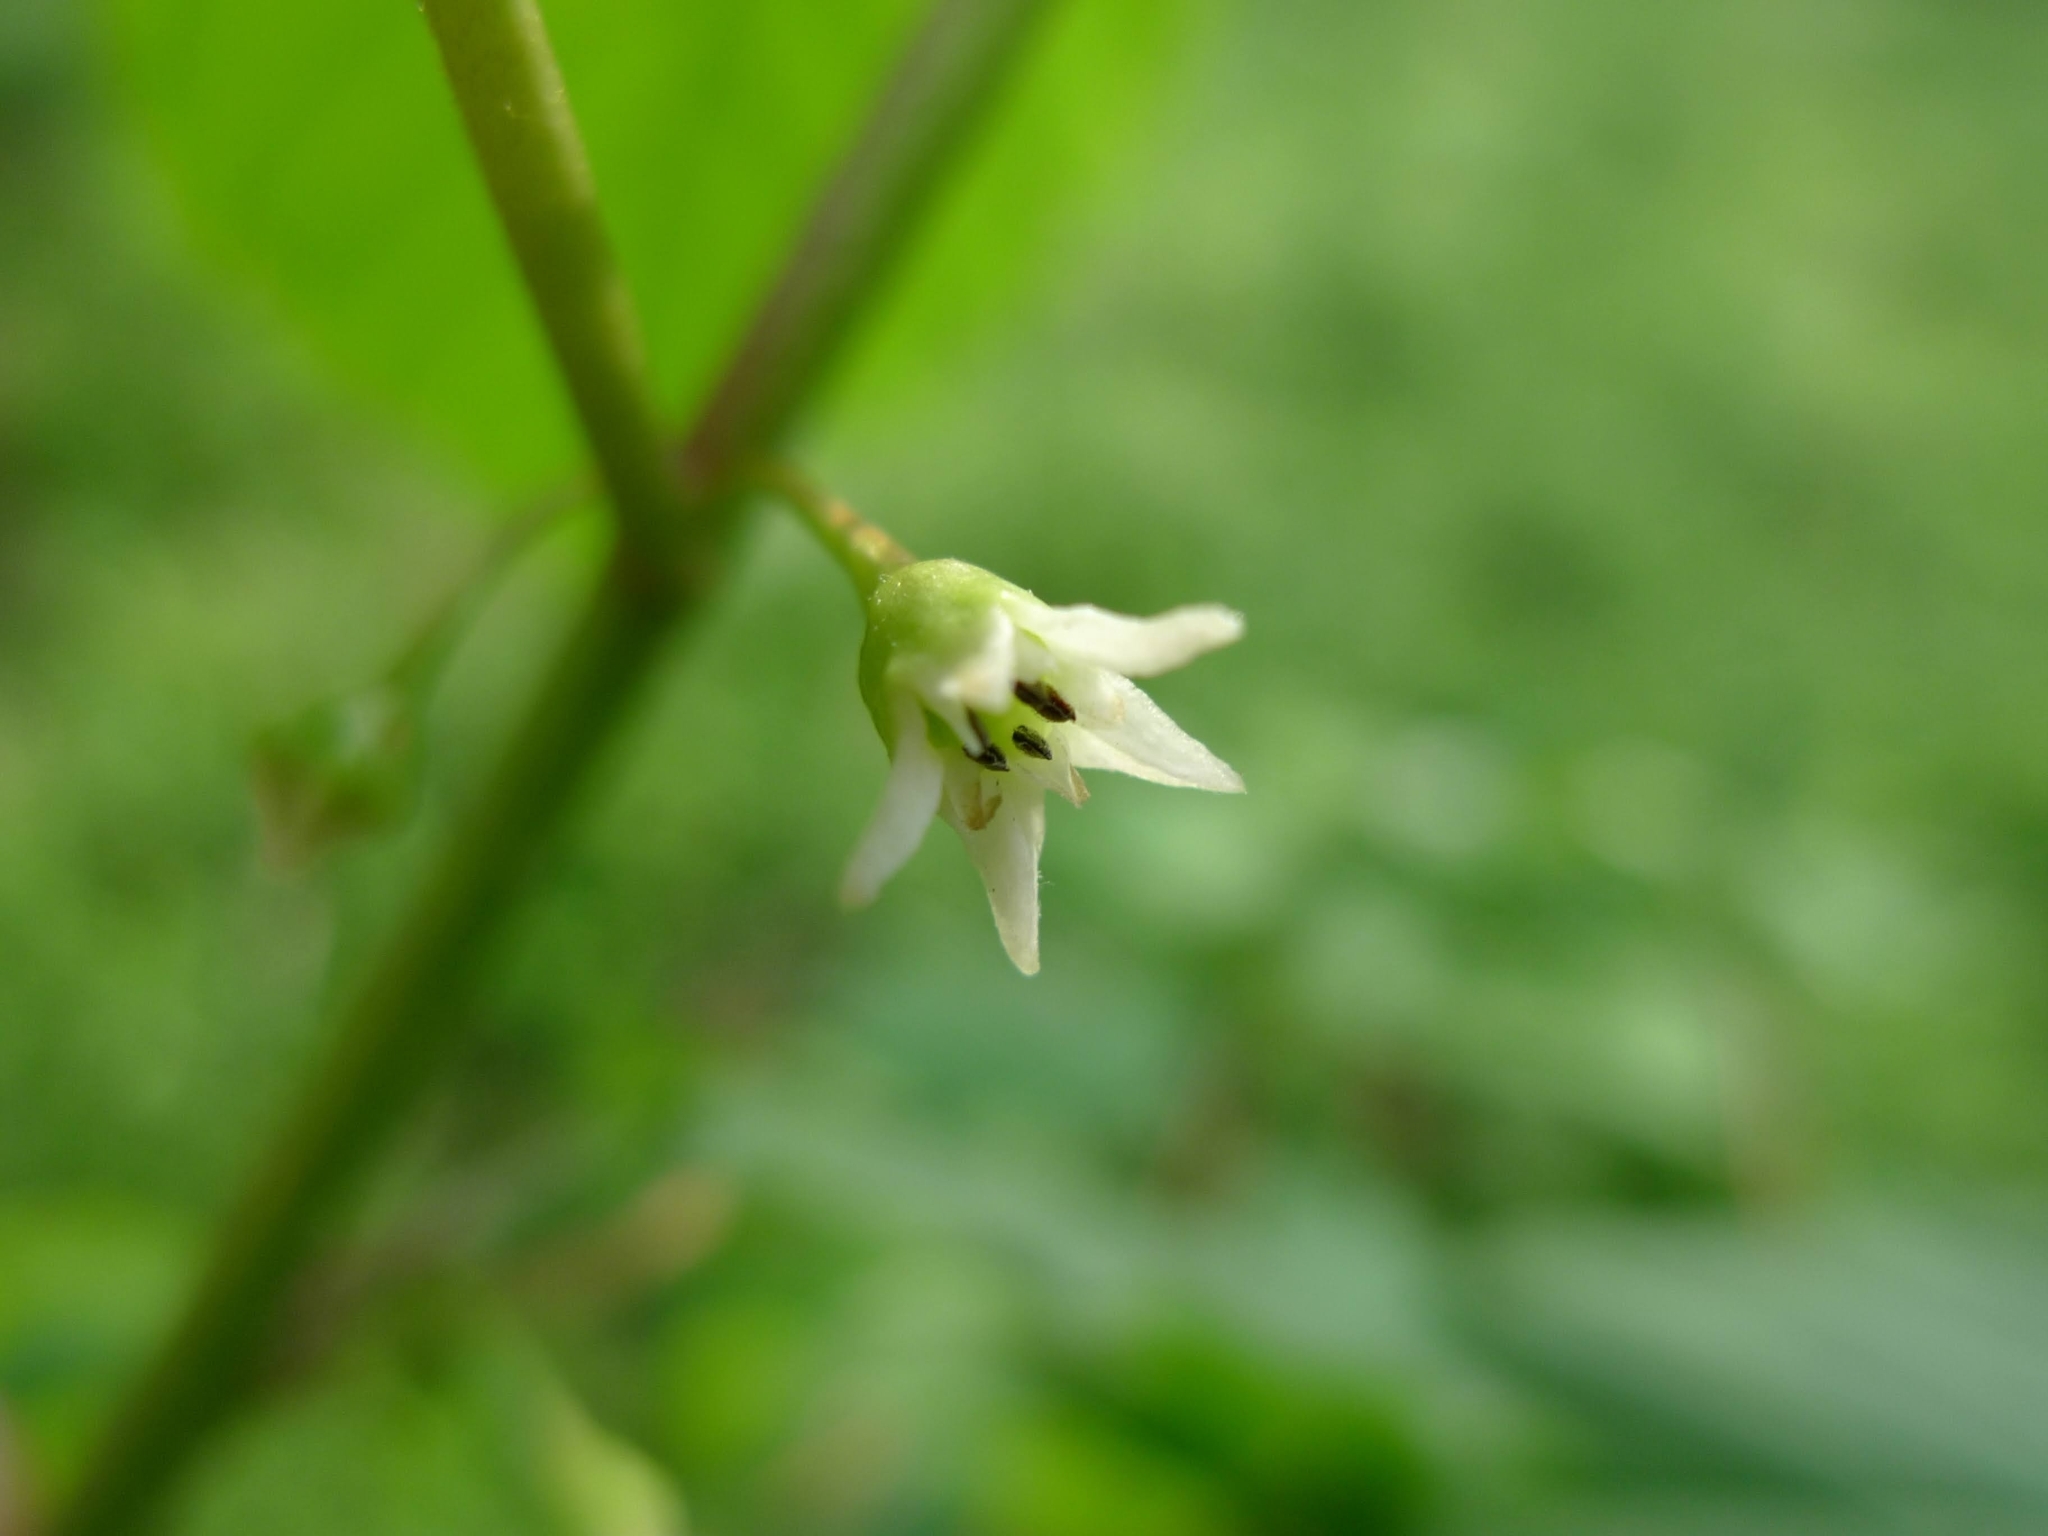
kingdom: Plantae
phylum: Tracheophyta
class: Magnoliopsida
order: Rosales
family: Rhamnaceae
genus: Frangula
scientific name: Frangula alnus
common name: Alder buckthorn
